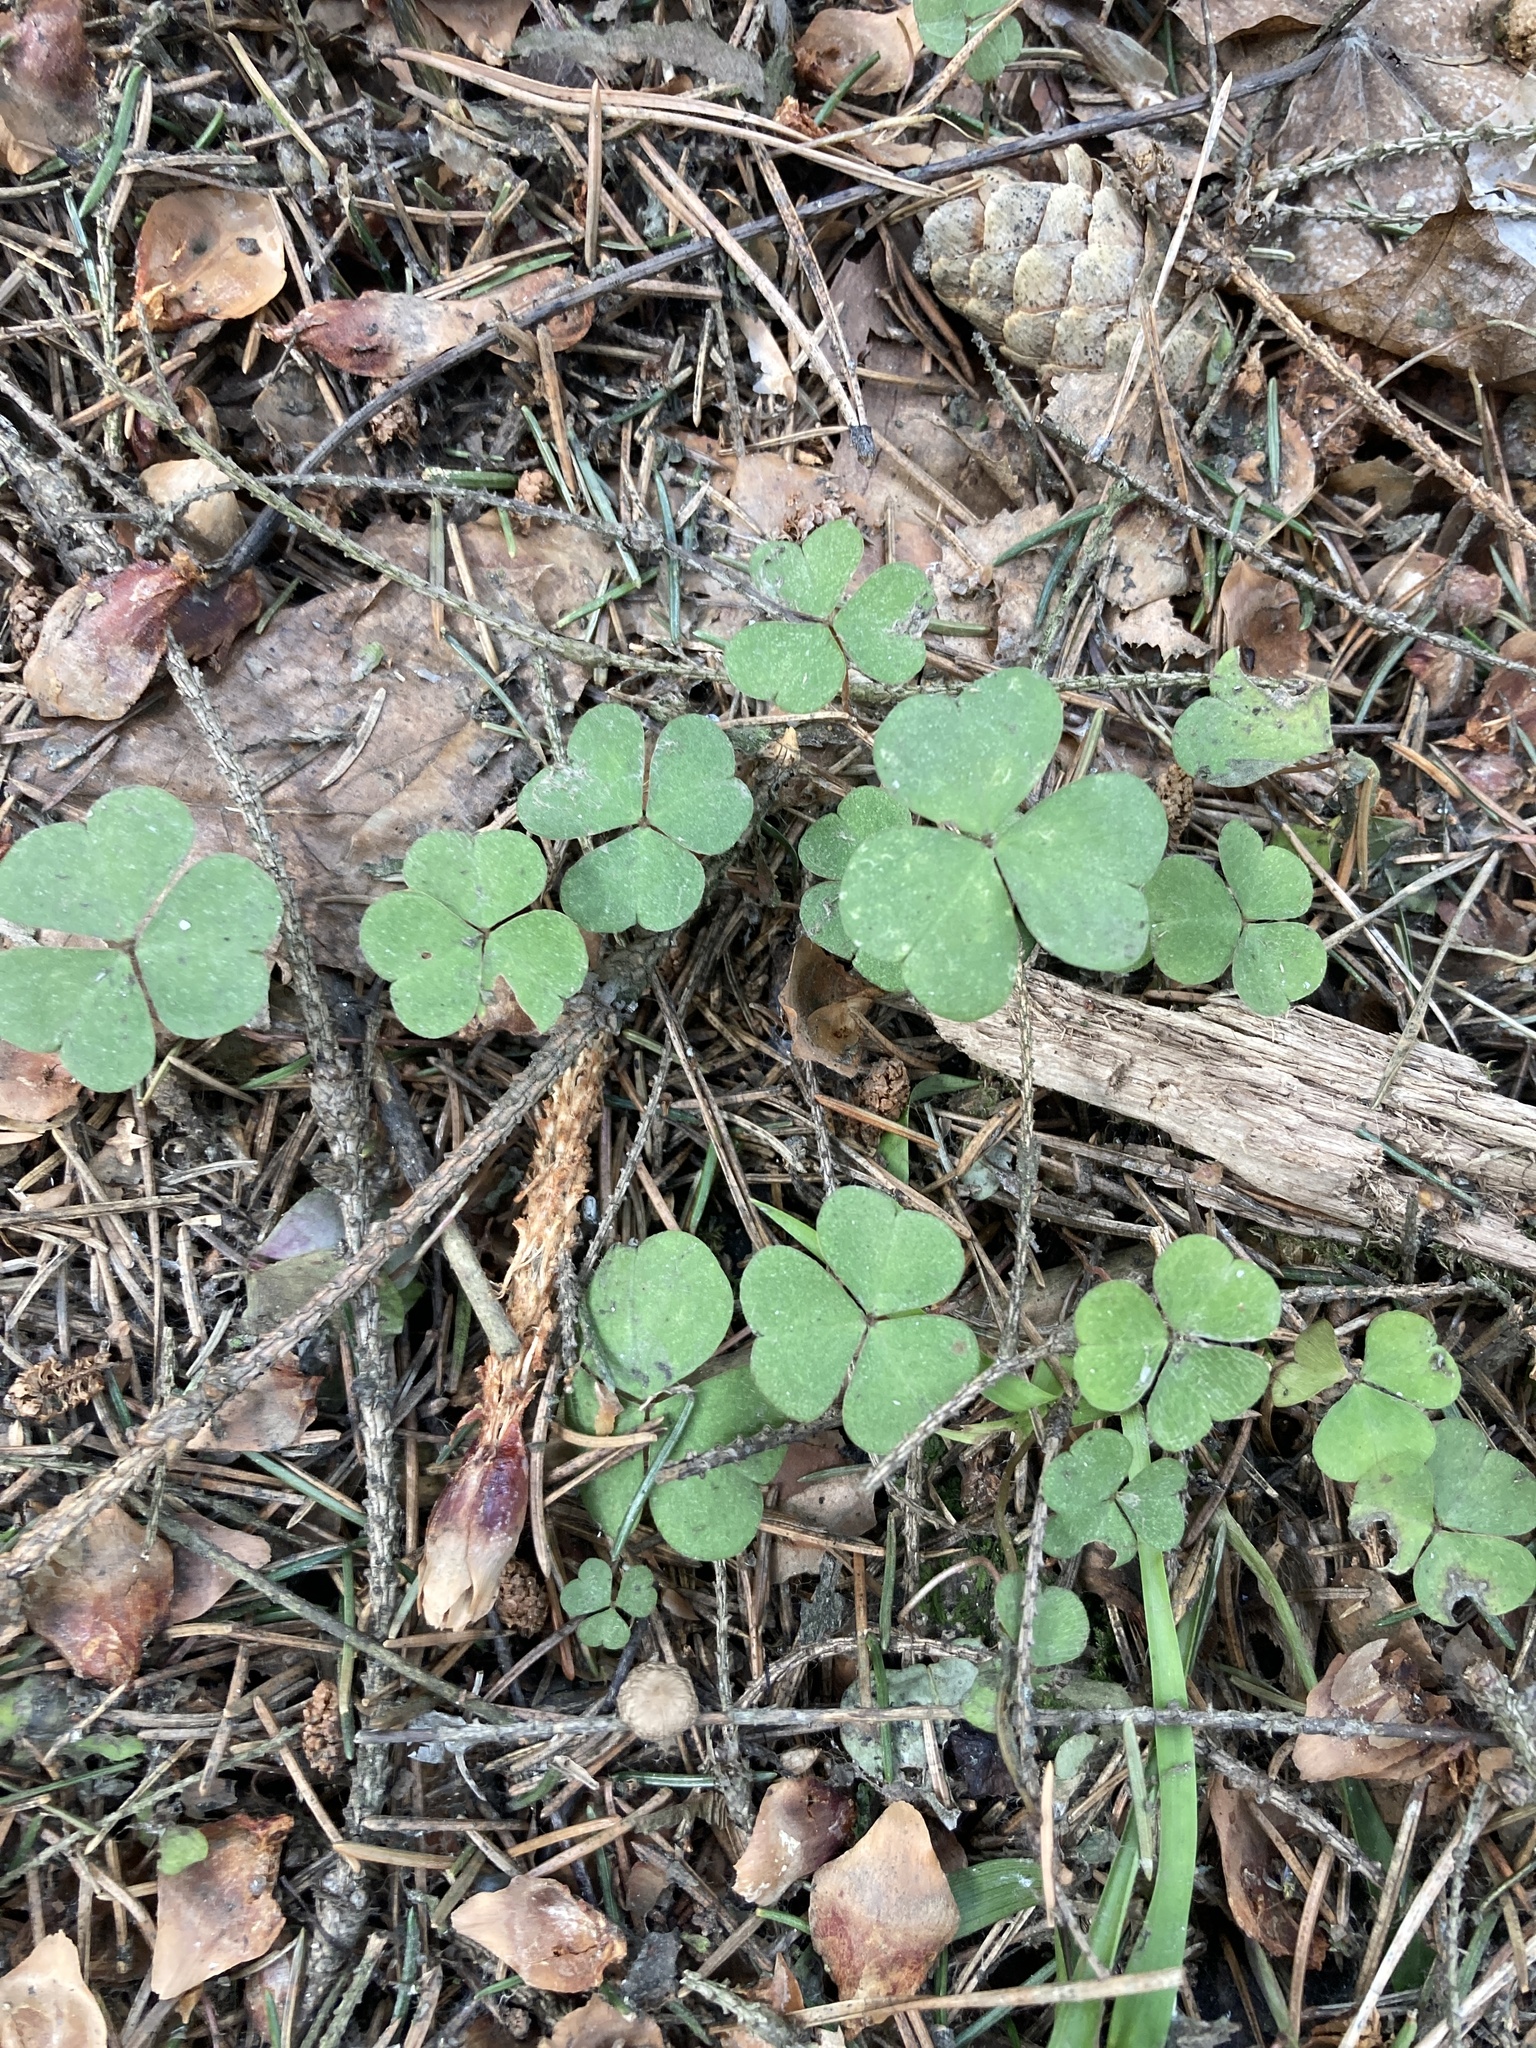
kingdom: Plantae
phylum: Tracheophyta
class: Magnoliopsida
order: Oxalidales
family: Oxalidaceae
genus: Oxalis
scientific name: Oxalis acetosella
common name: Wood-sorrel
